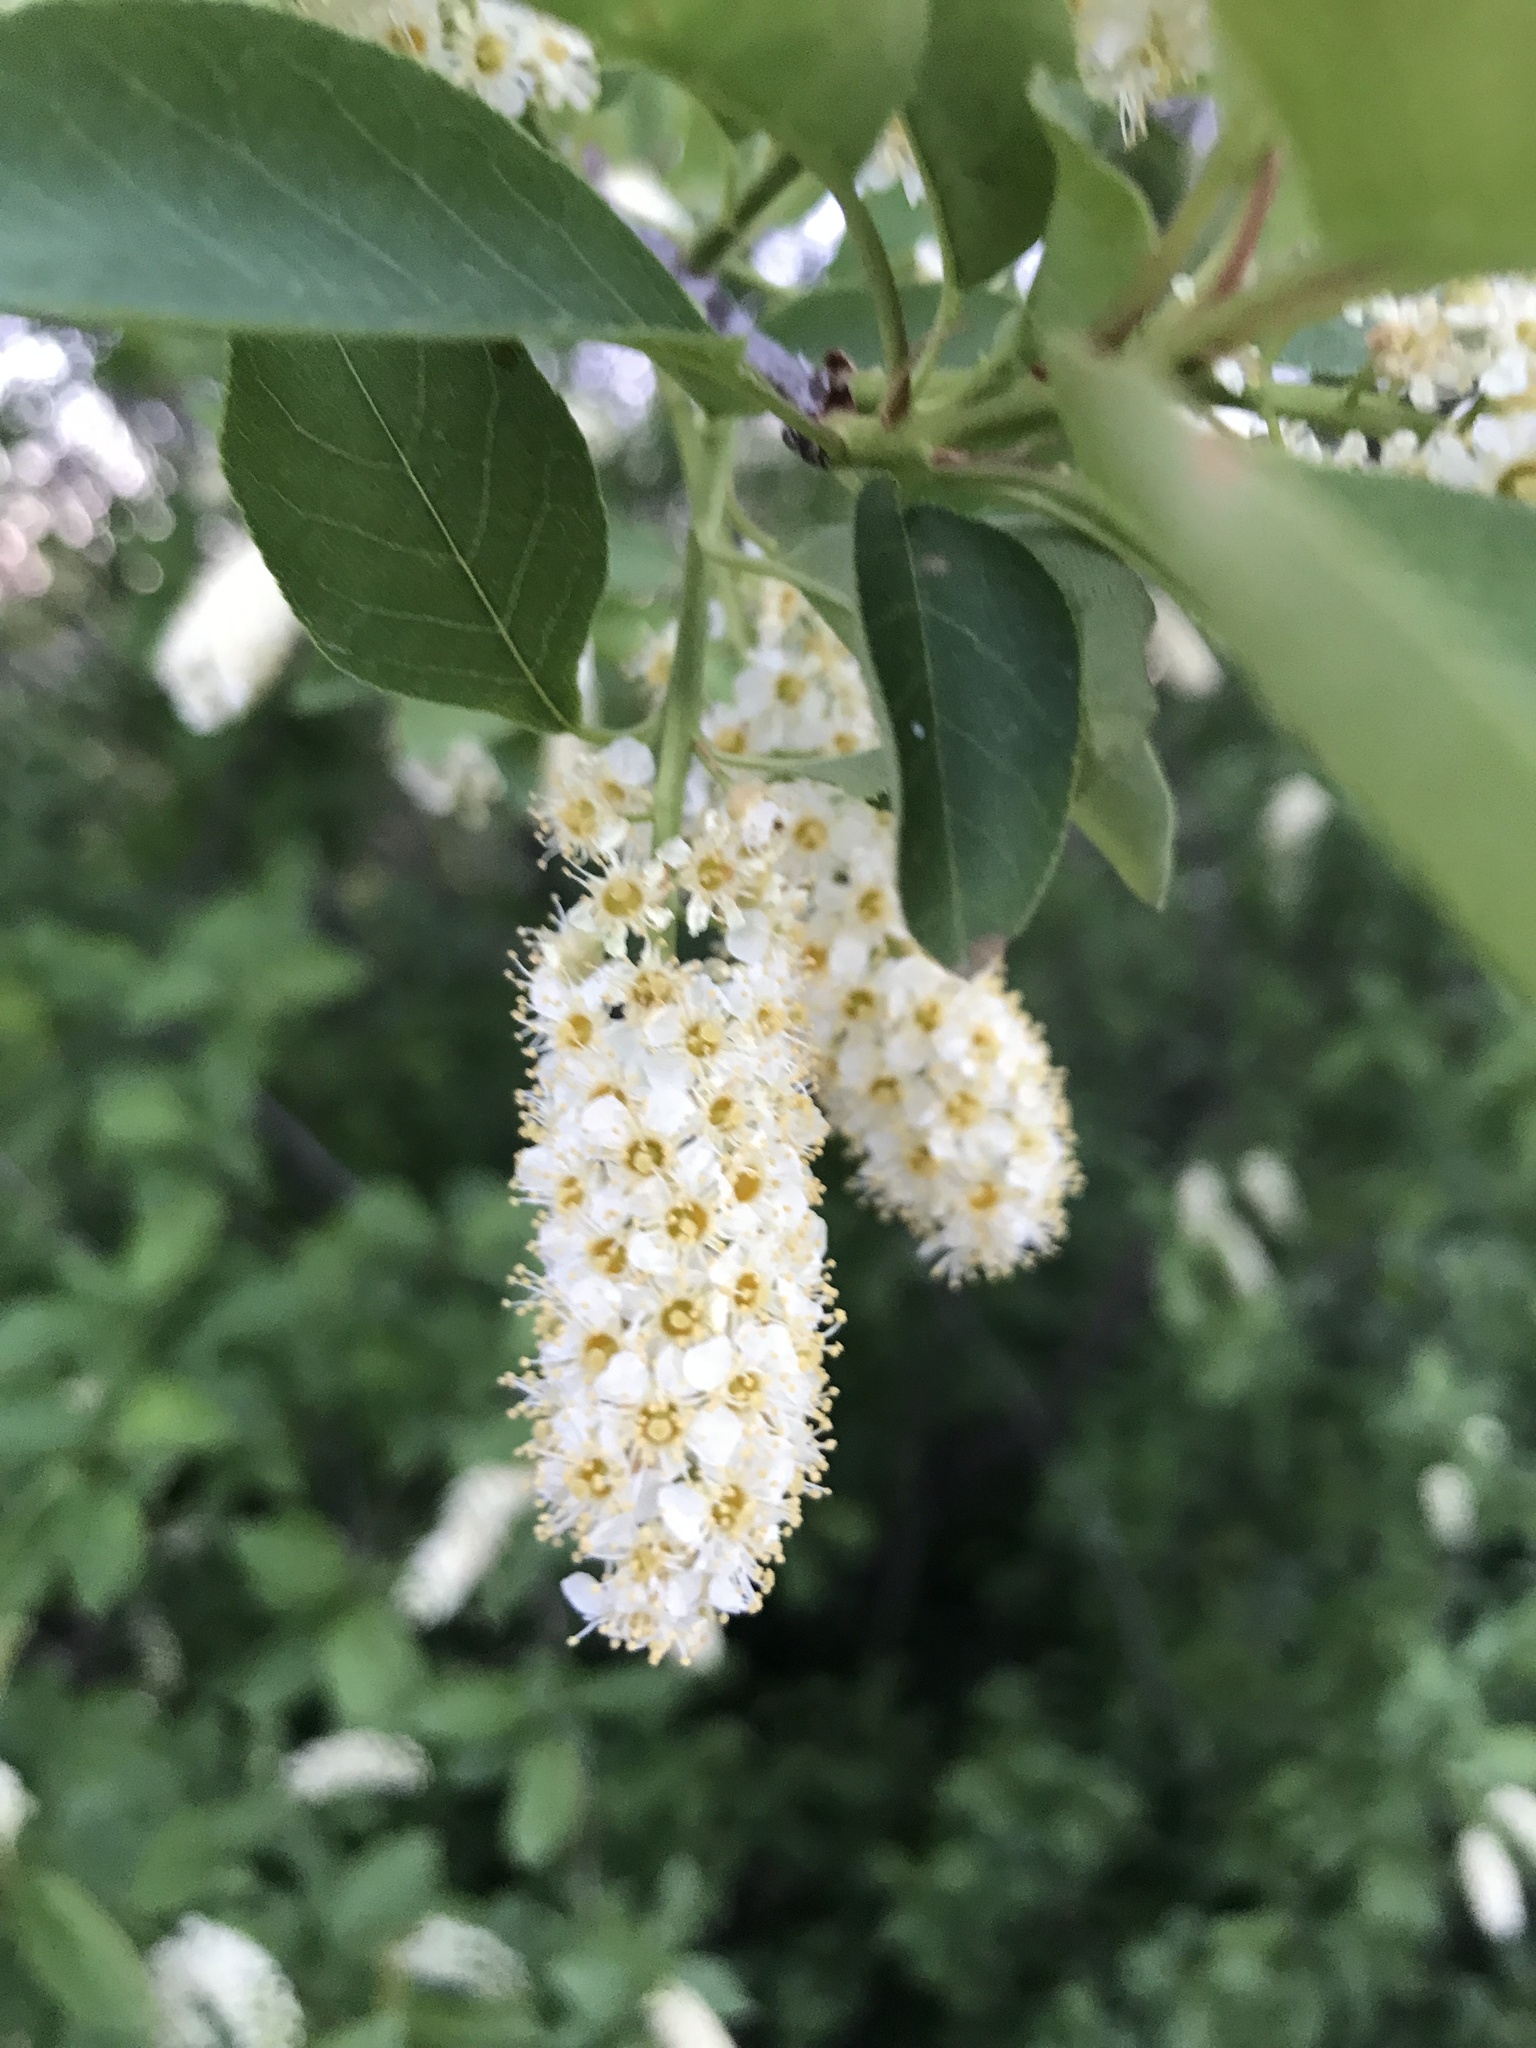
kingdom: Plantae
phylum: Tracheophyta
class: Magnoliopsida
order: Rosales
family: Rosaceae
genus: Prunus
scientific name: Prunus virginiana
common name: Chokecherry
